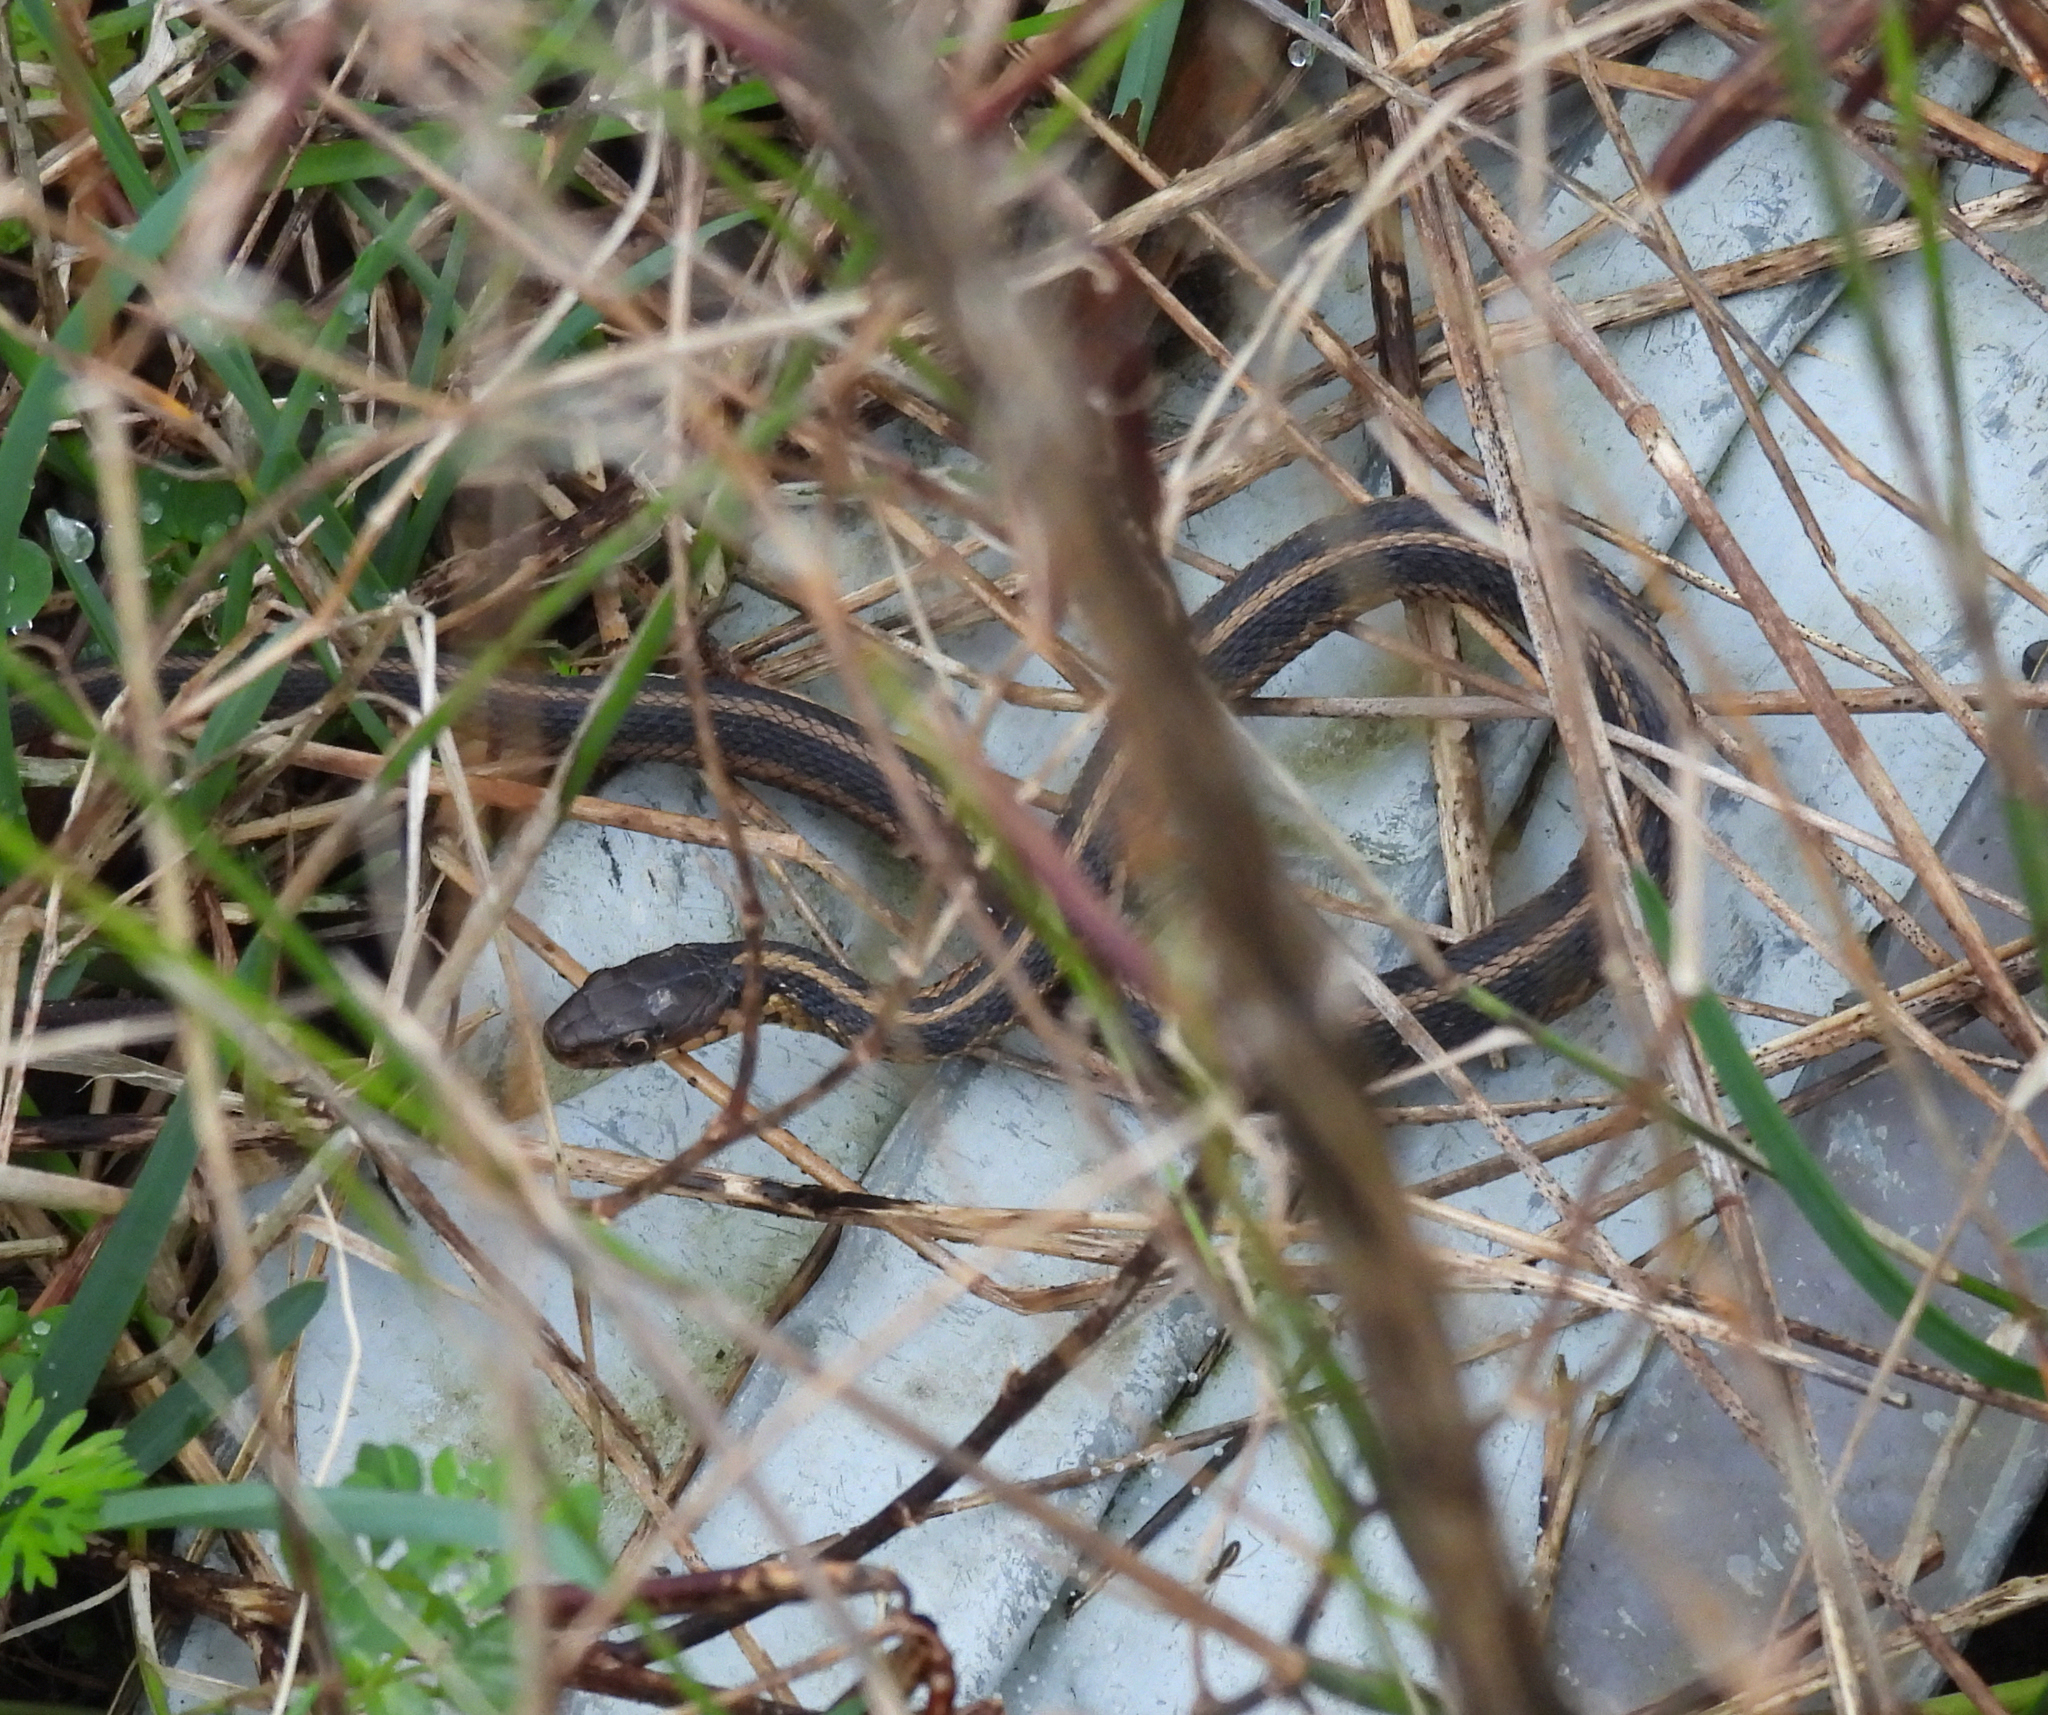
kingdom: Animalia
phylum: Chordata
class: Squamata
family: Colubridae
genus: Thamnophis
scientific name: Thamnophis sirtalis
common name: Common garter snake
